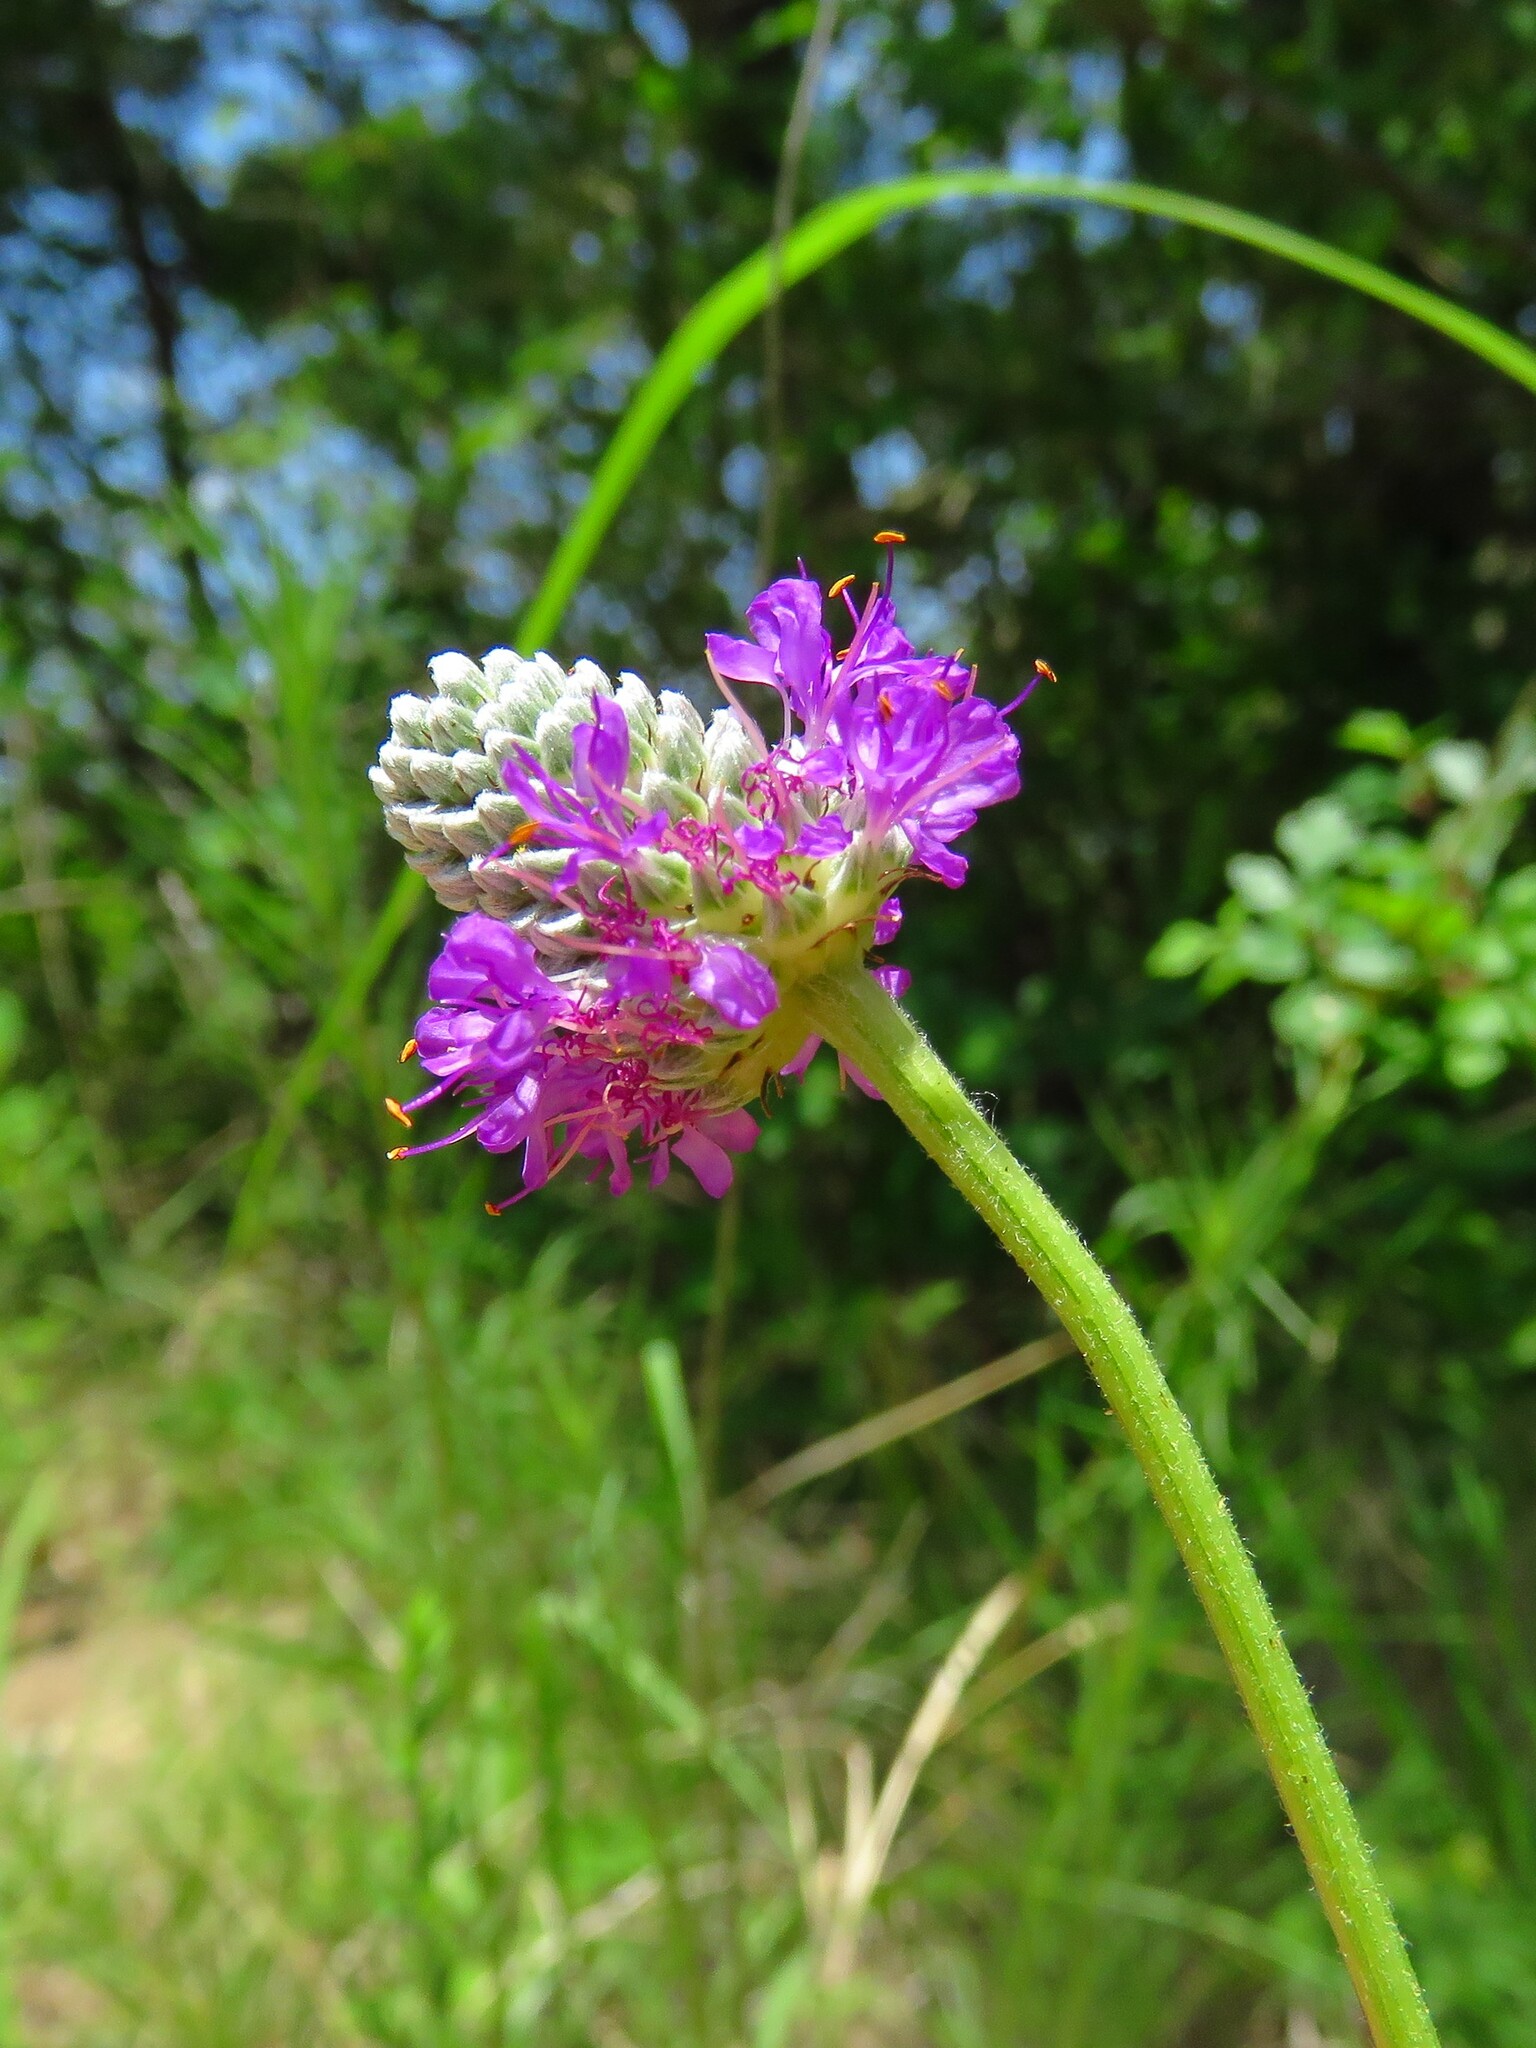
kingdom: Plantae
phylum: Tracheophyta
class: Magnoliopsida
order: Fabales
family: Fabaceae
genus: Dalea
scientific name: Dalea purpurea
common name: Purple prairie-clover
